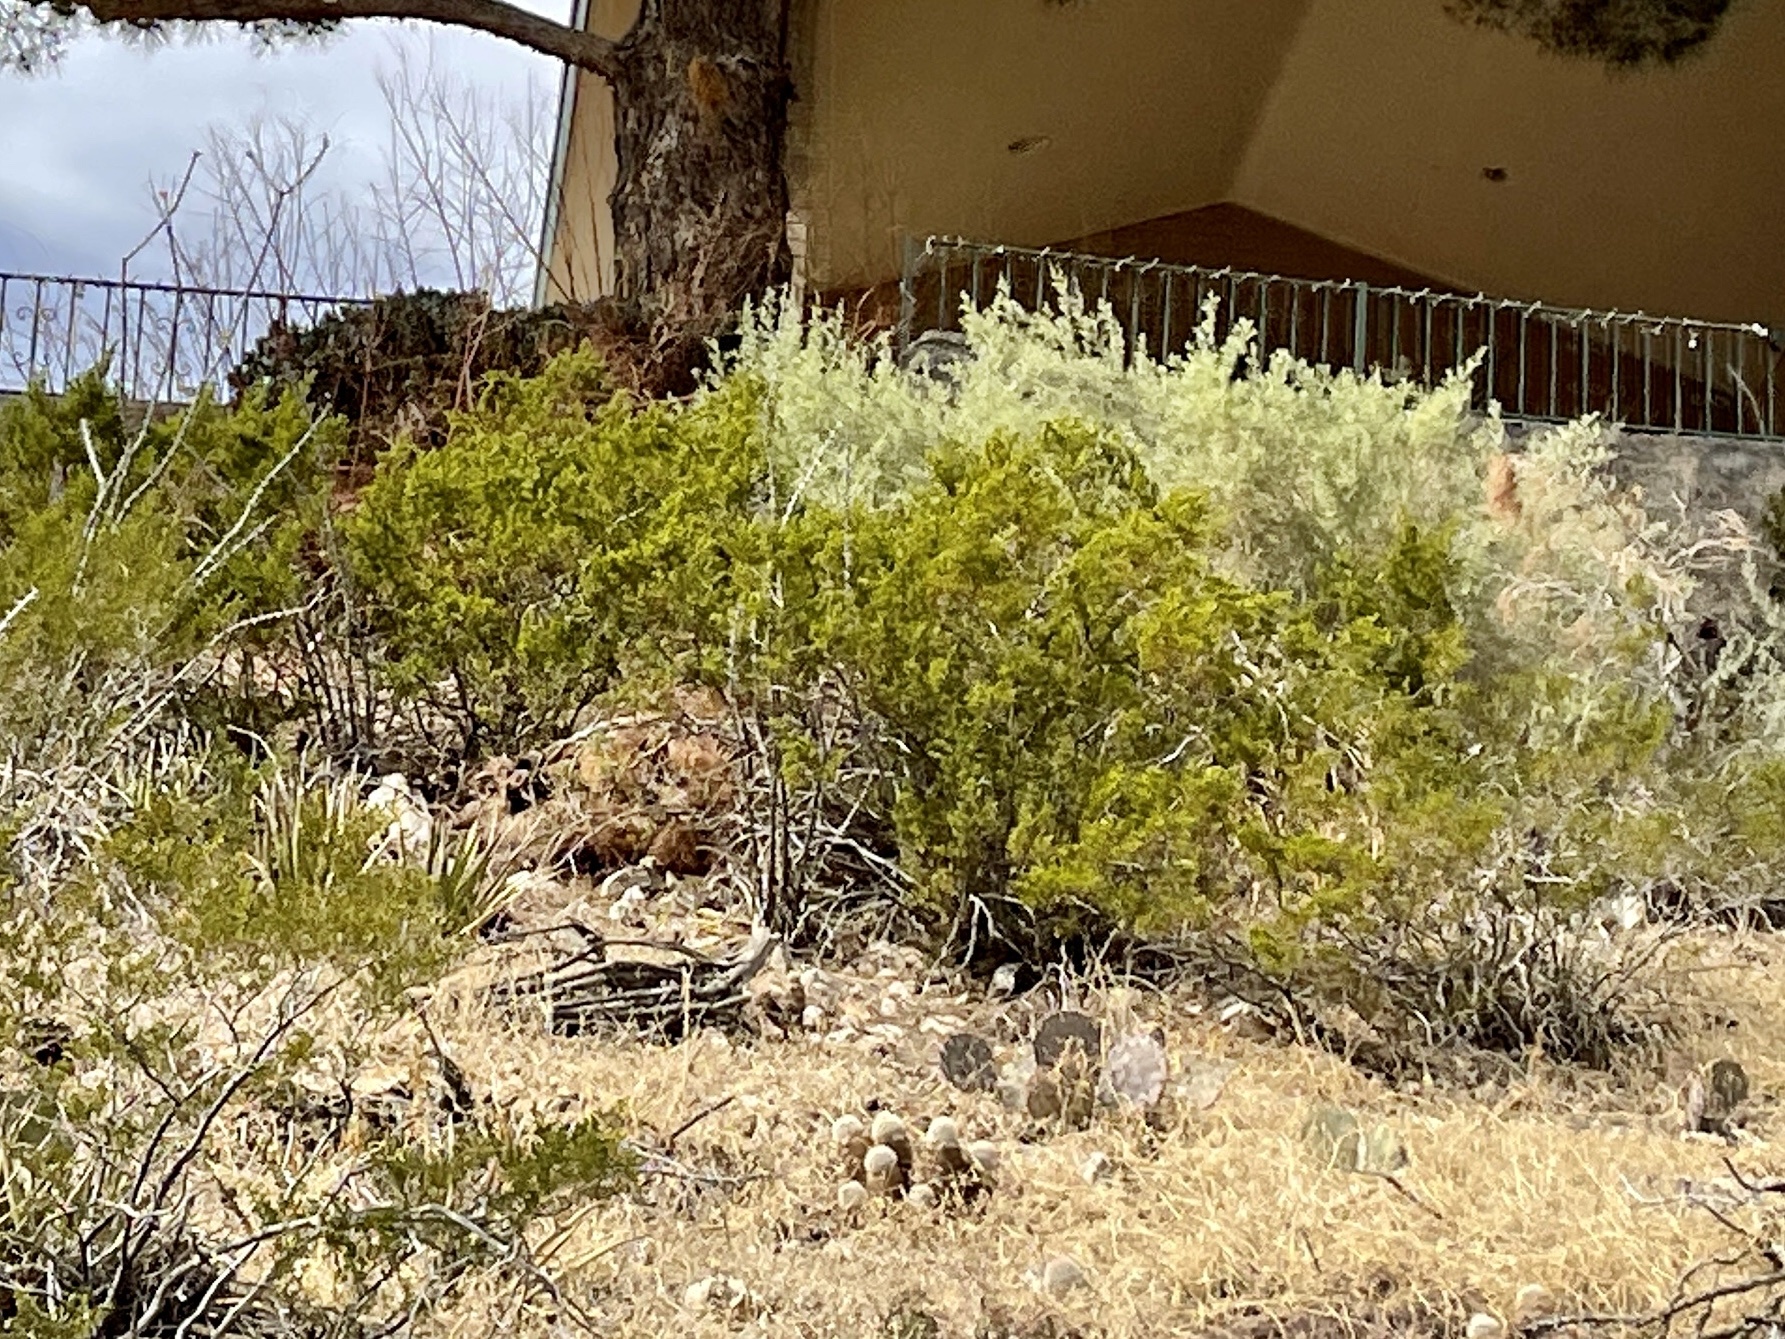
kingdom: Plantae
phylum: Tracheophyta
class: Magnoliopsida
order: Zygophyllales
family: Zygophyllaceae
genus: Larrea
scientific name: Larrea tridentata
